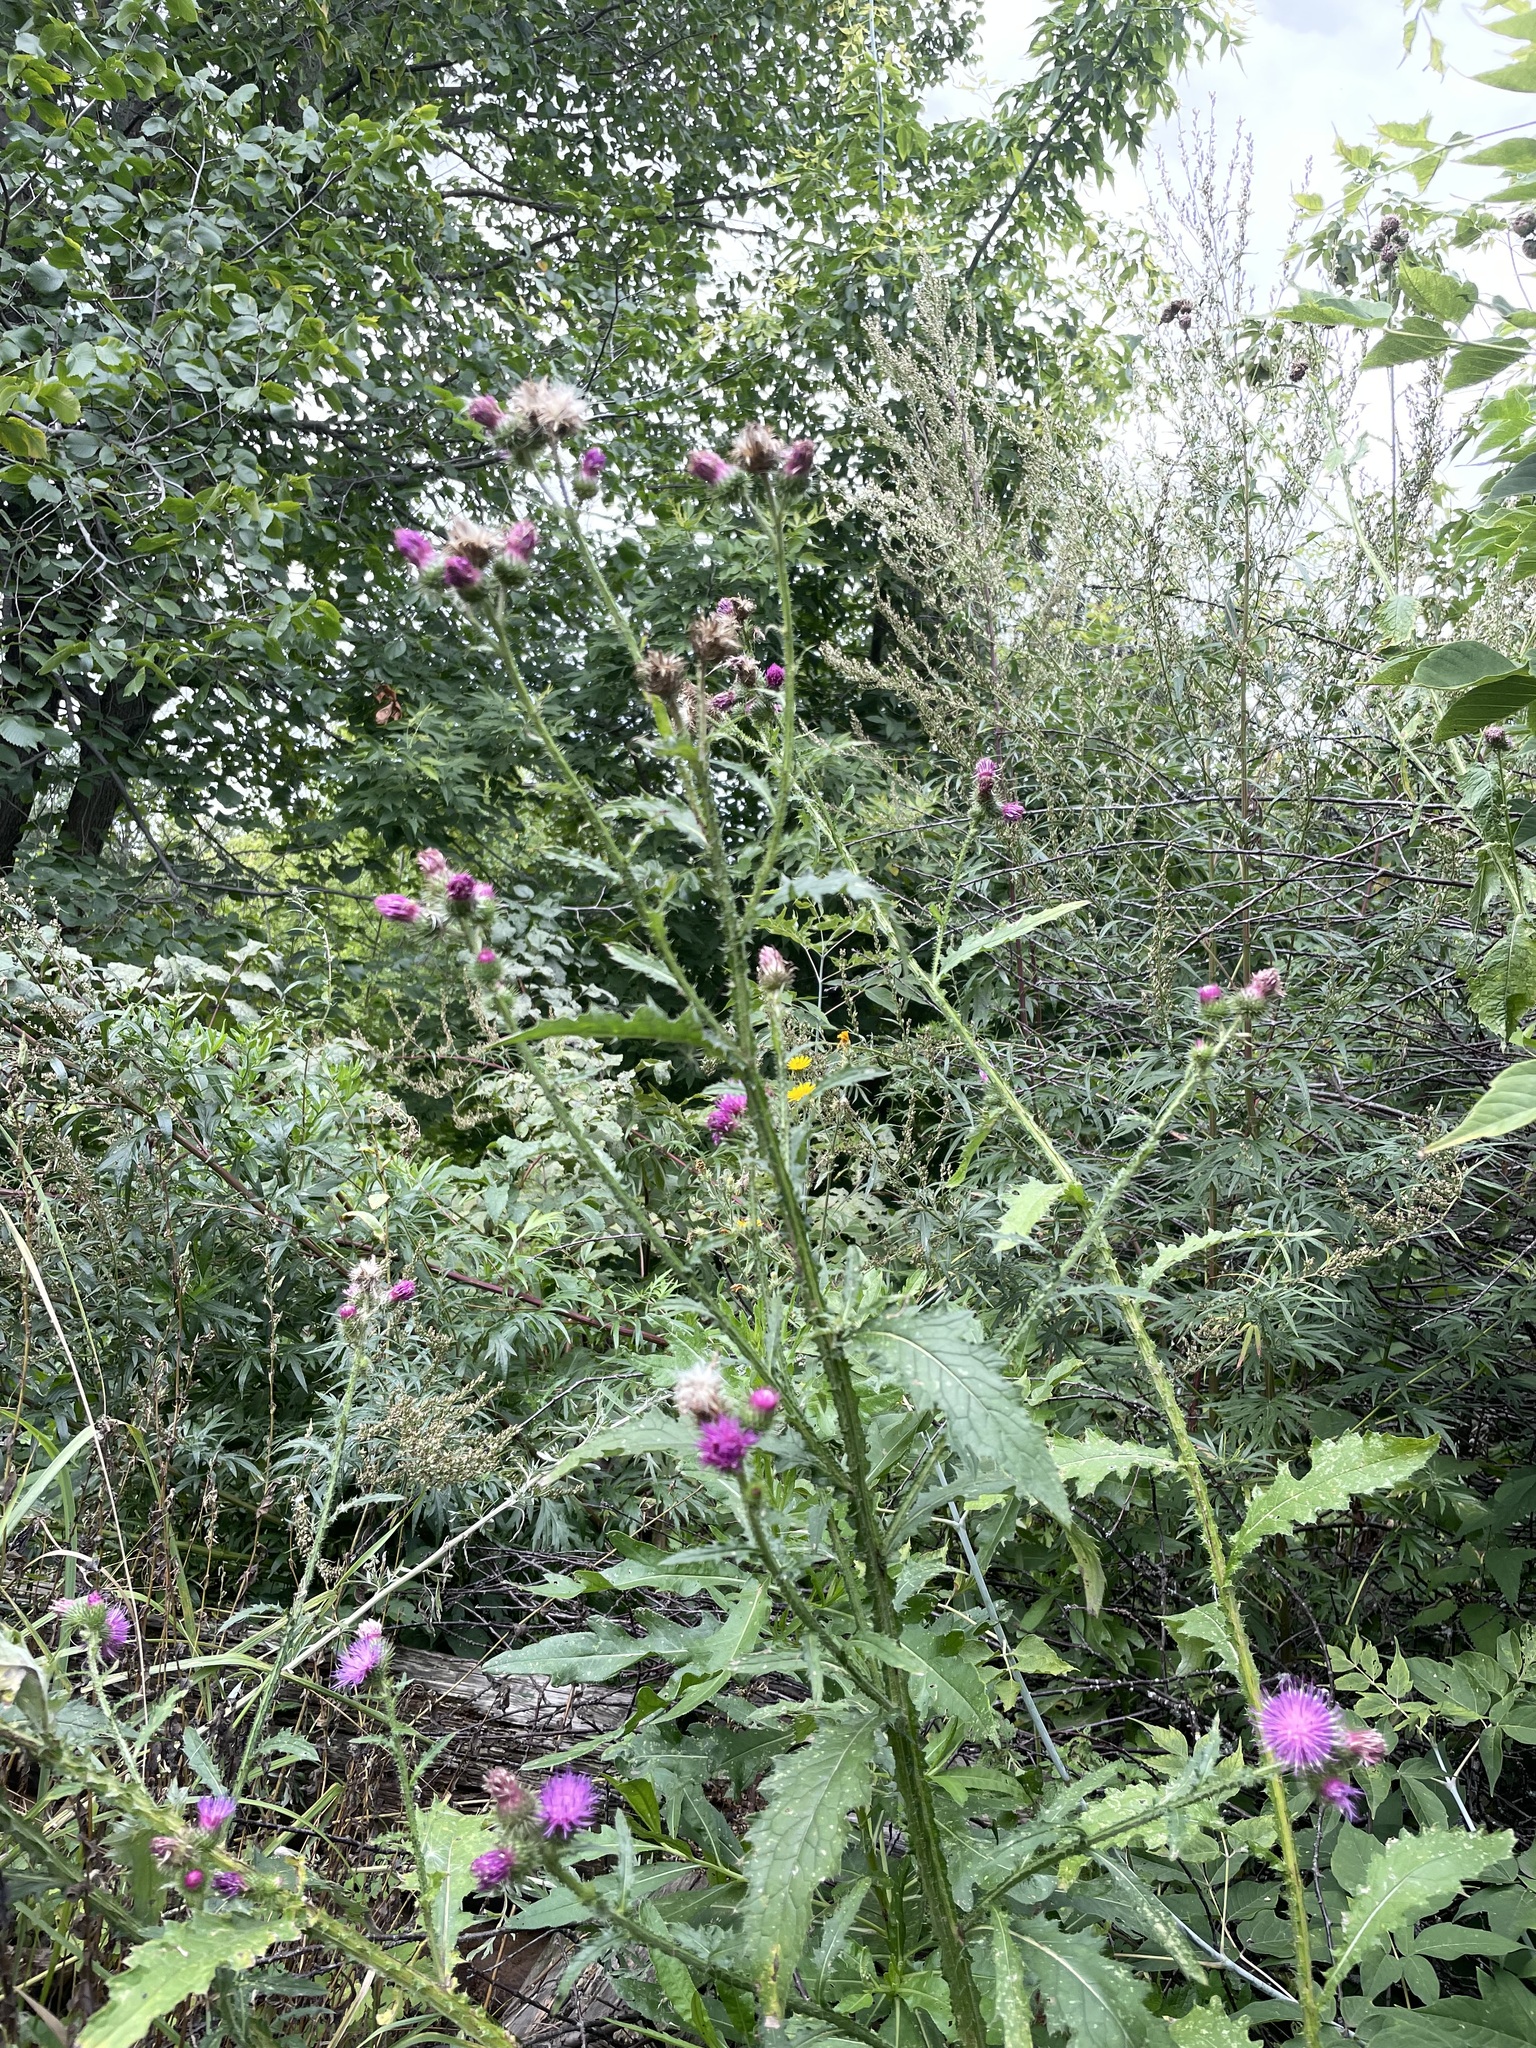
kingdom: Plantae
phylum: Tracheophyta
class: Magnoliopsida
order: Asterales
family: Asteraceae
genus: Carduus
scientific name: Carduus crispus
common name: Welted thistle
